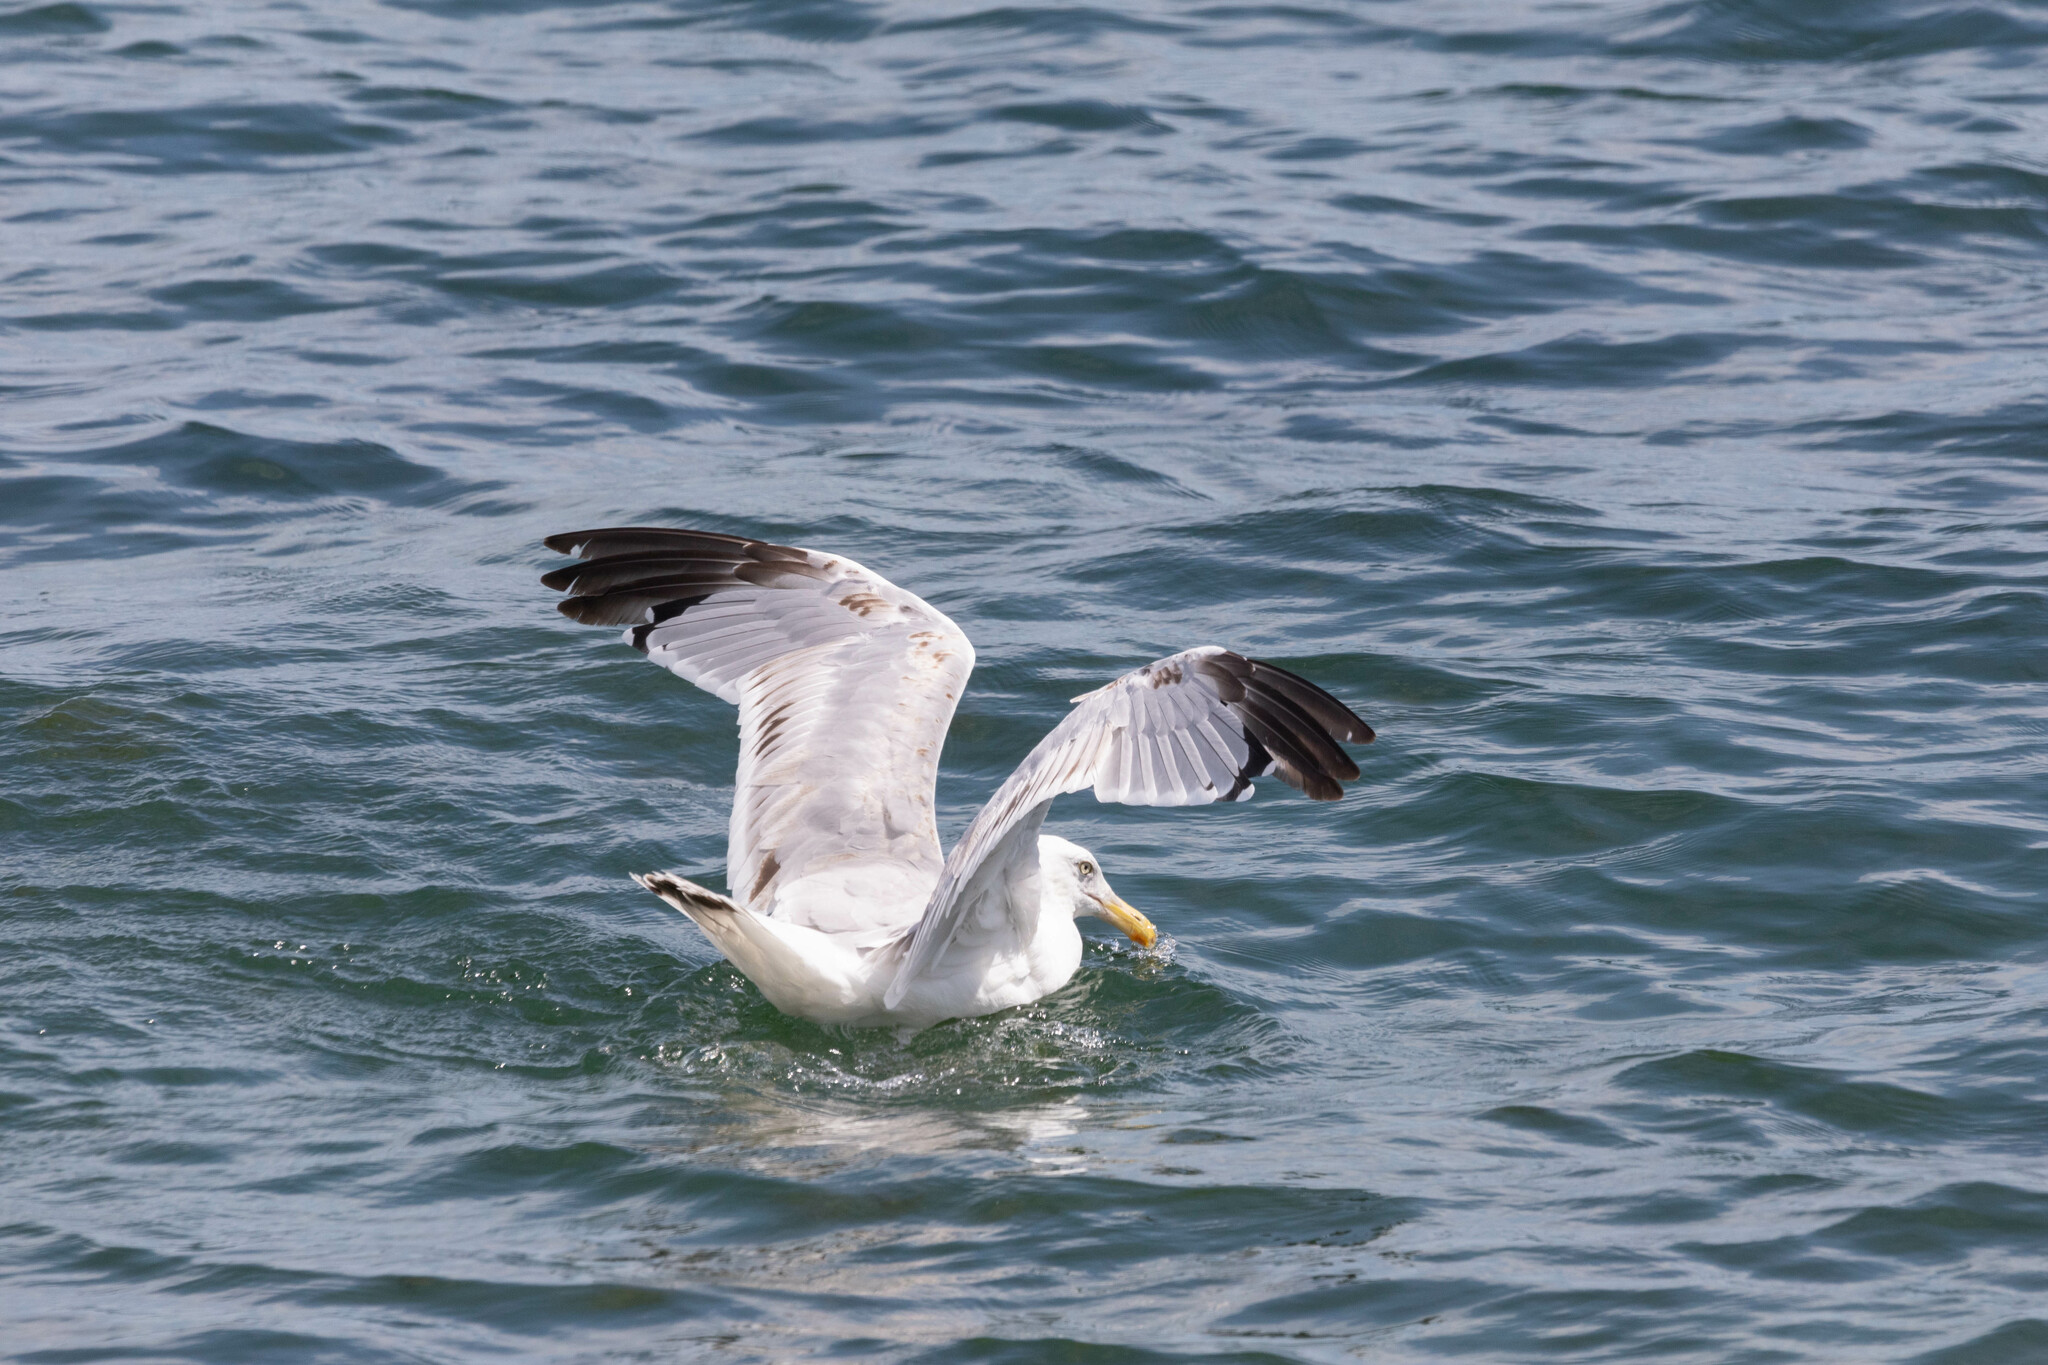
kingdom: Animalia
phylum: Chordata
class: Aves
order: Charadriiformes
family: Laridae
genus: Larus
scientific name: Larus argentatus
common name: Herring gull
